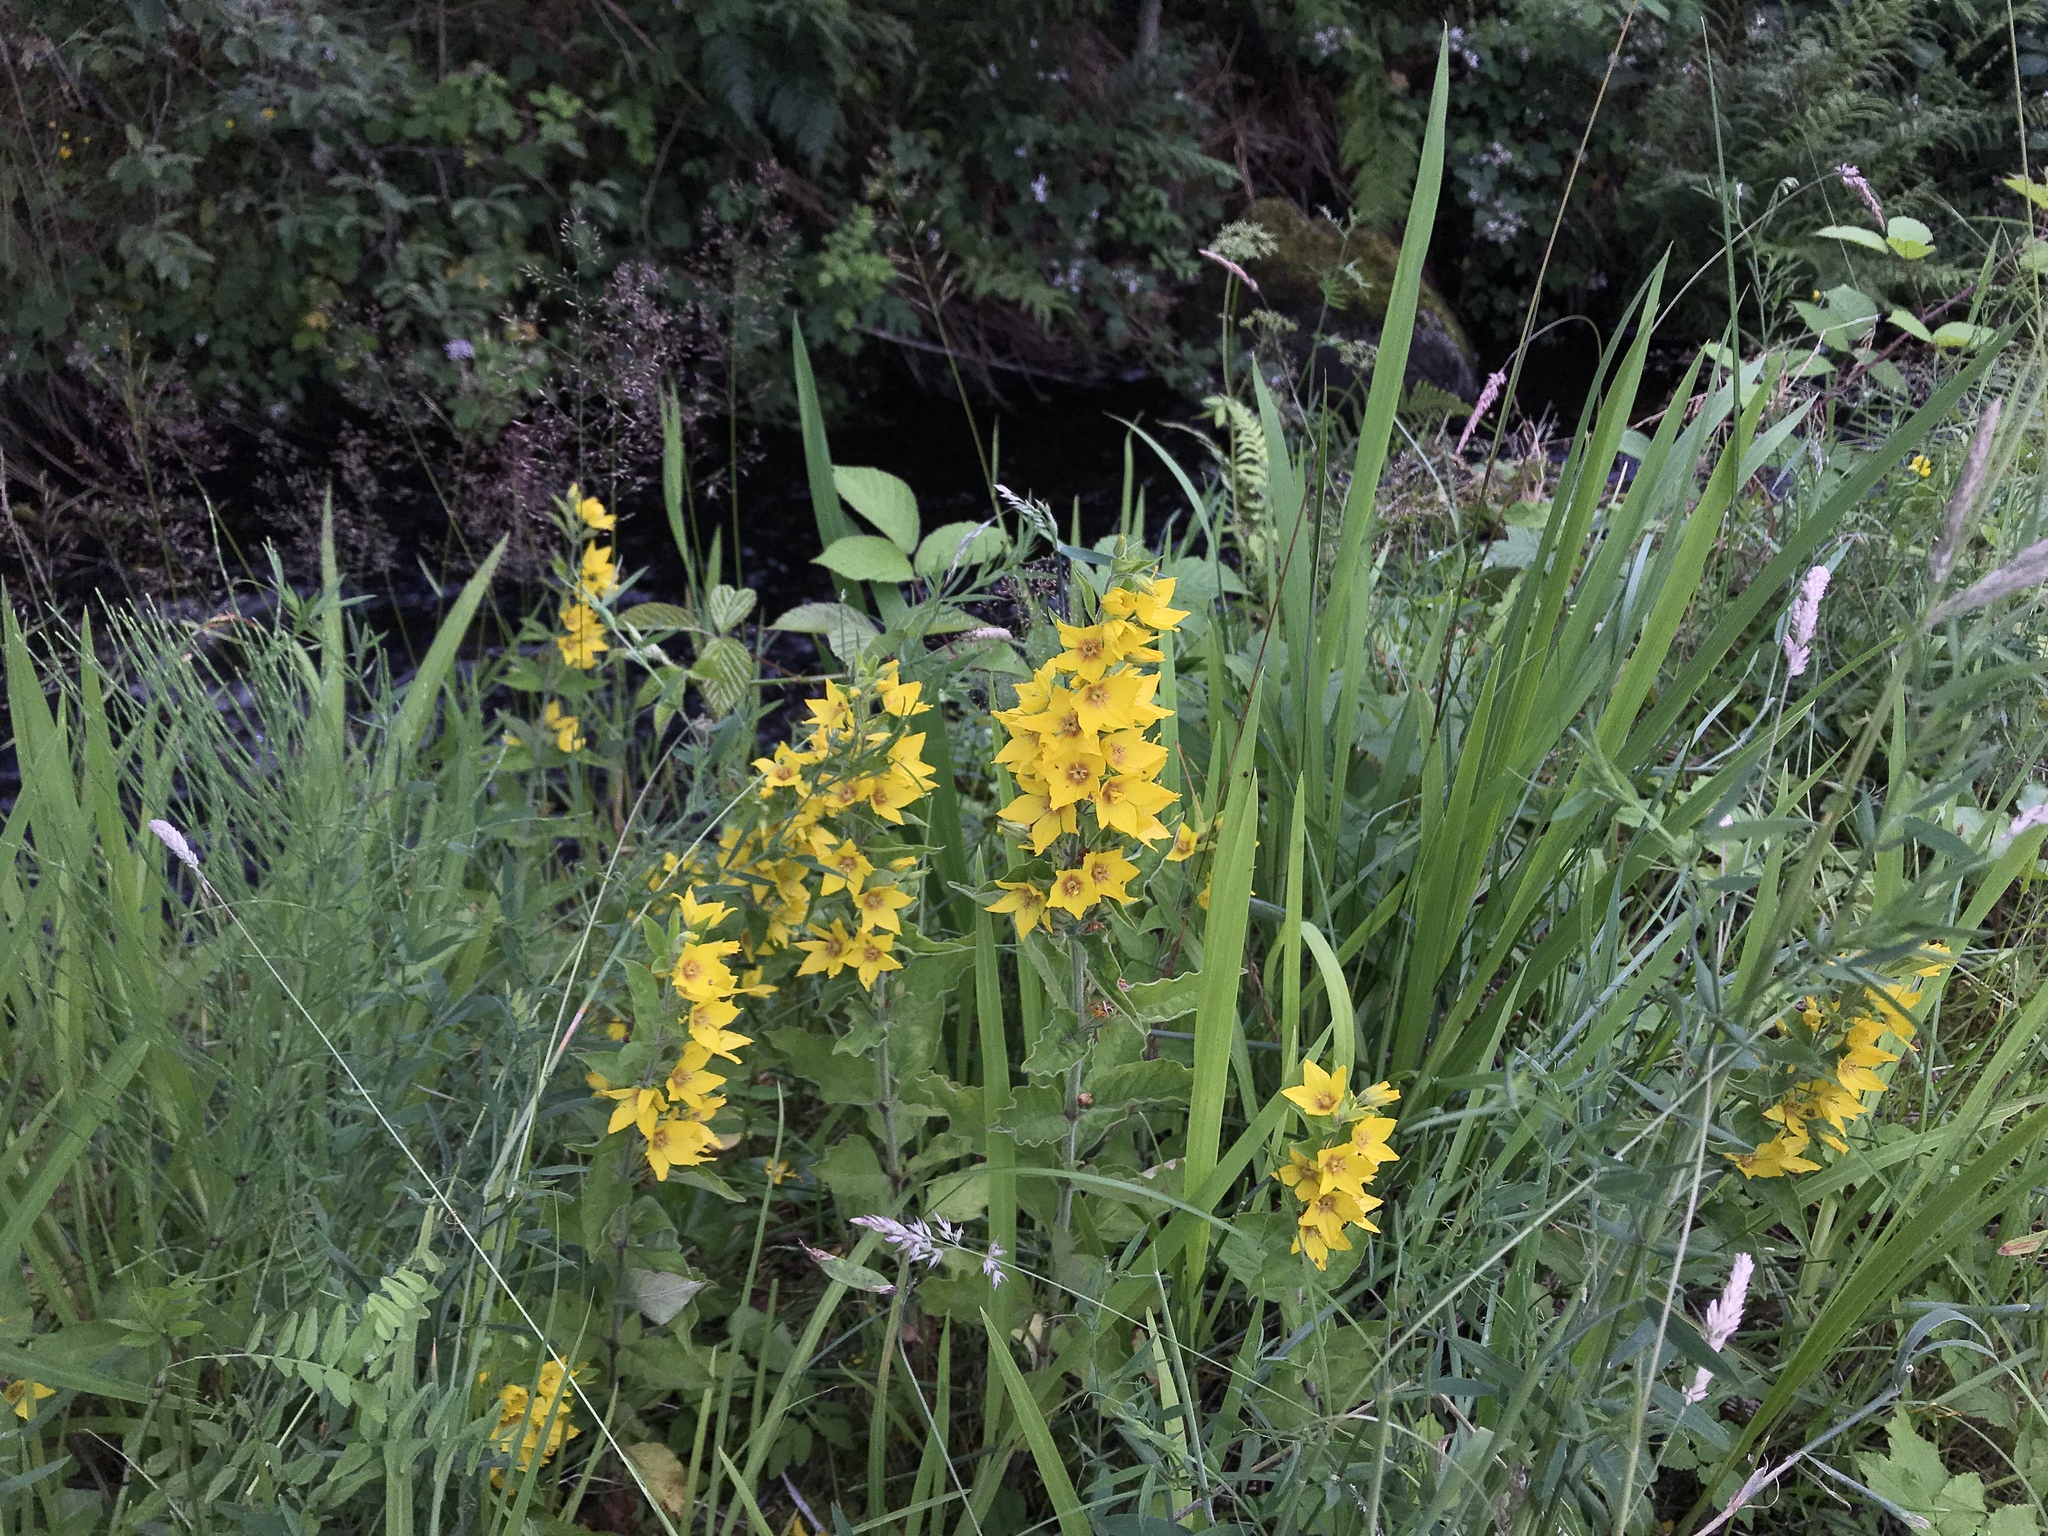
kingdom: Plantae
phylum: Tracheophyta
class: Magnoliopsida
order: Ericales
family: Primulaceae
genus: Lysimachia
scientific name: Lysimachia punctata
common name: Dotted loosestrife
